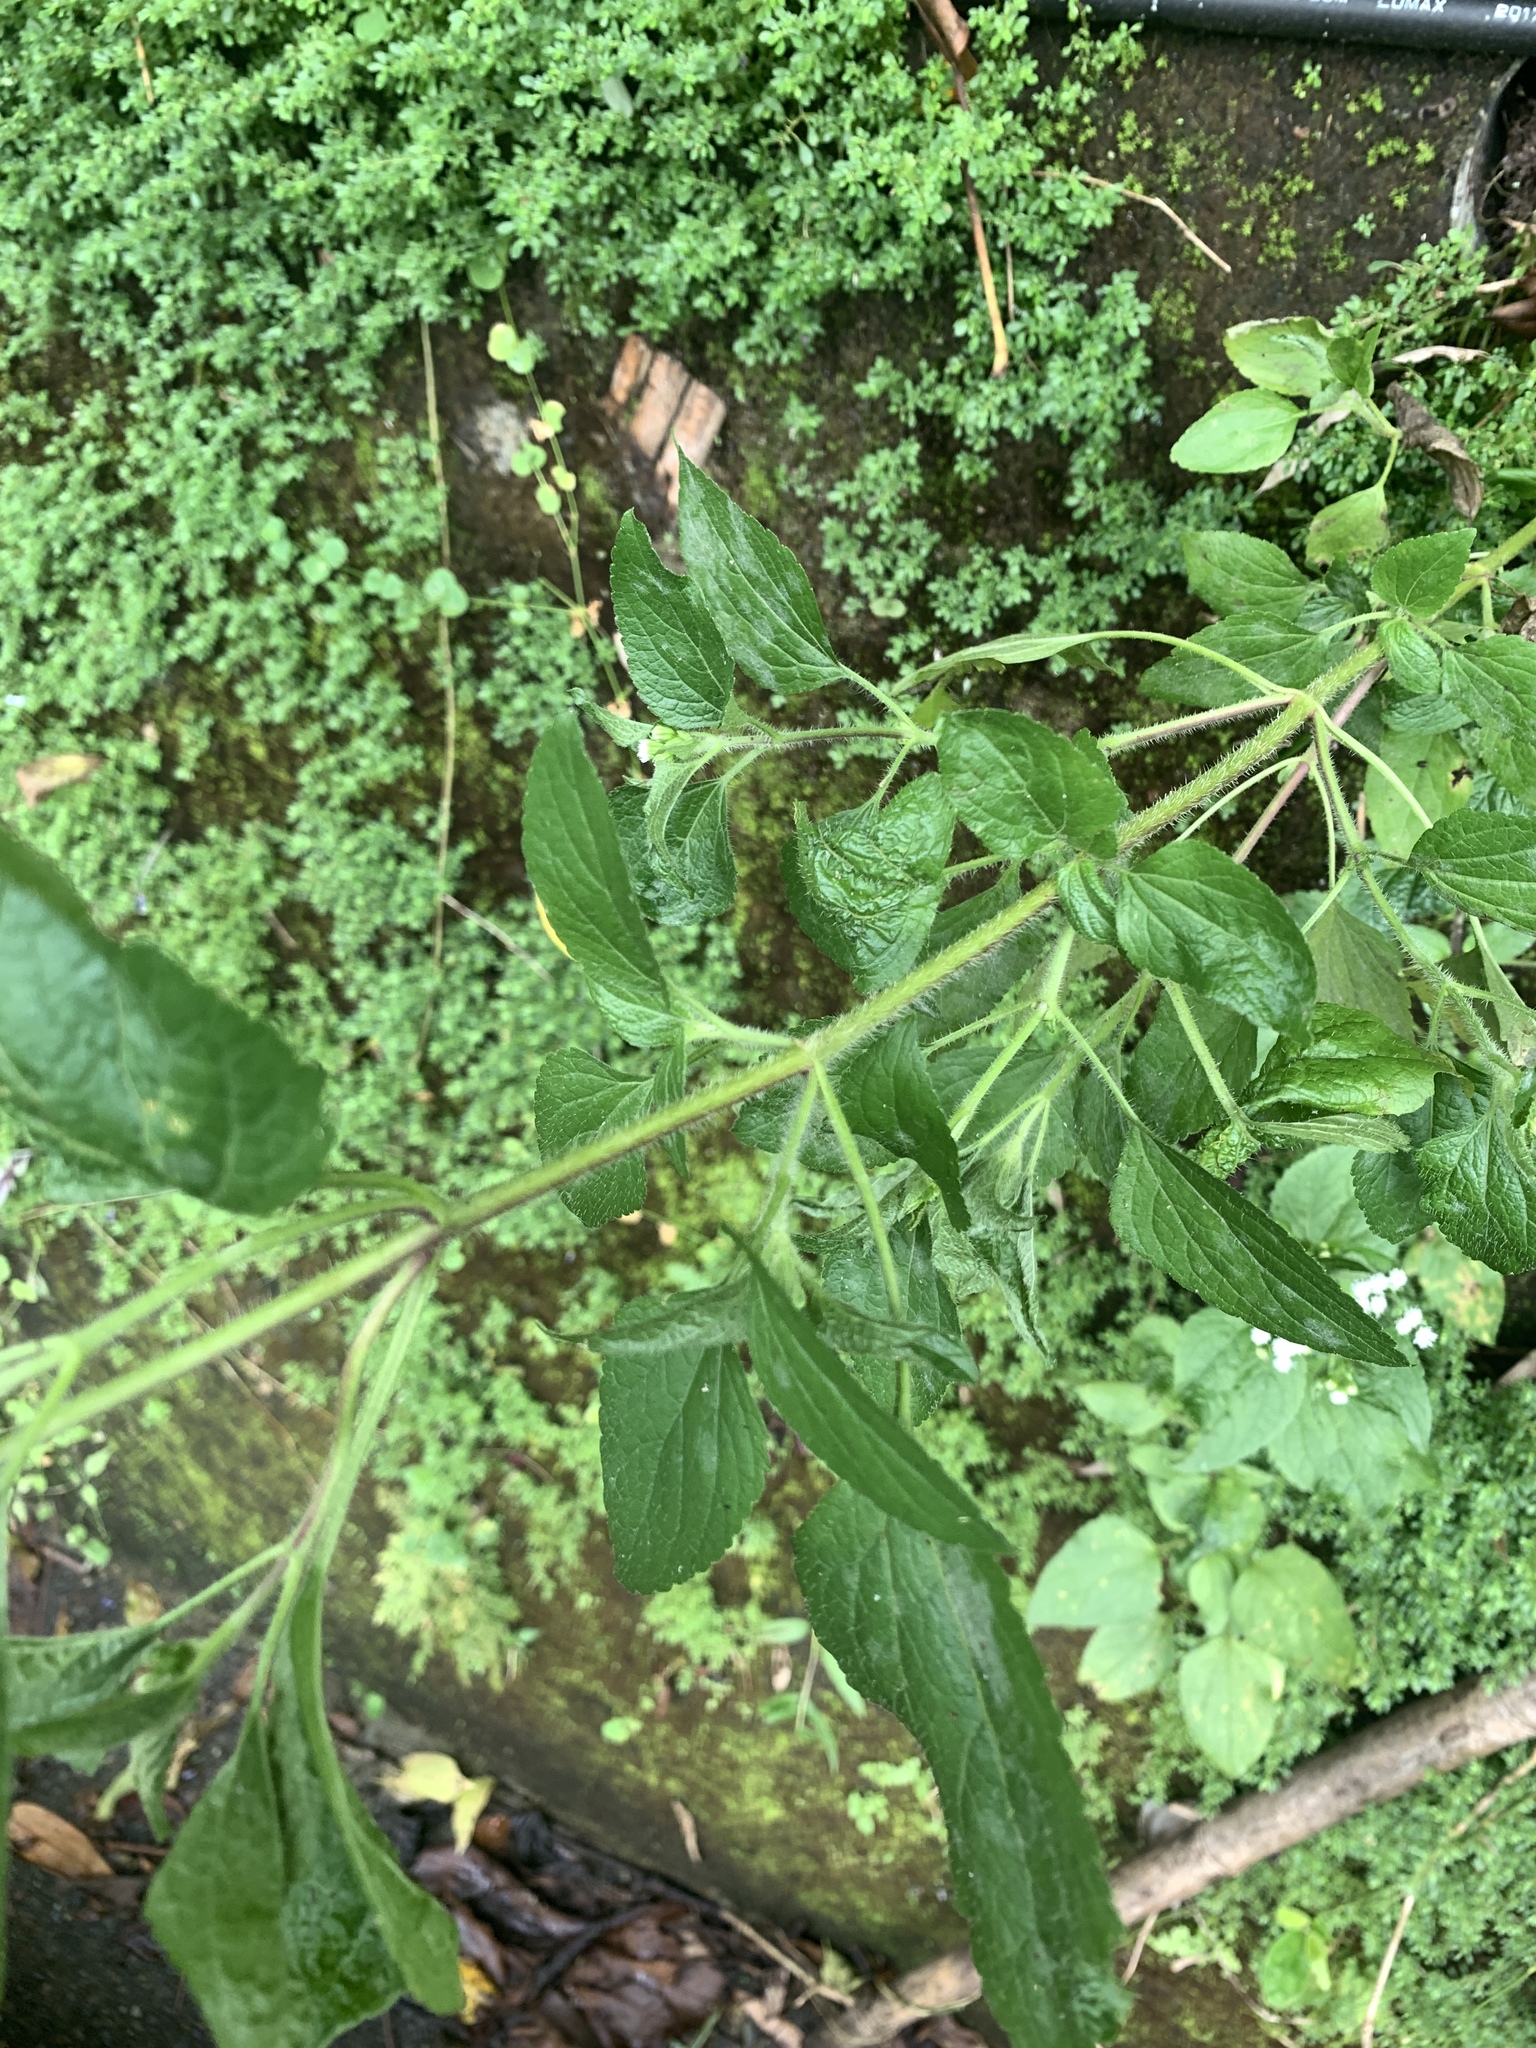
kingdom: Plantae
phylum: Tracheophyta
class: Magnoliopsida
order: Asterales
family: Asteraceae
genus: Ageratum
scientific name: Ageratum conyzoides
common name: Tropical whiteweed
